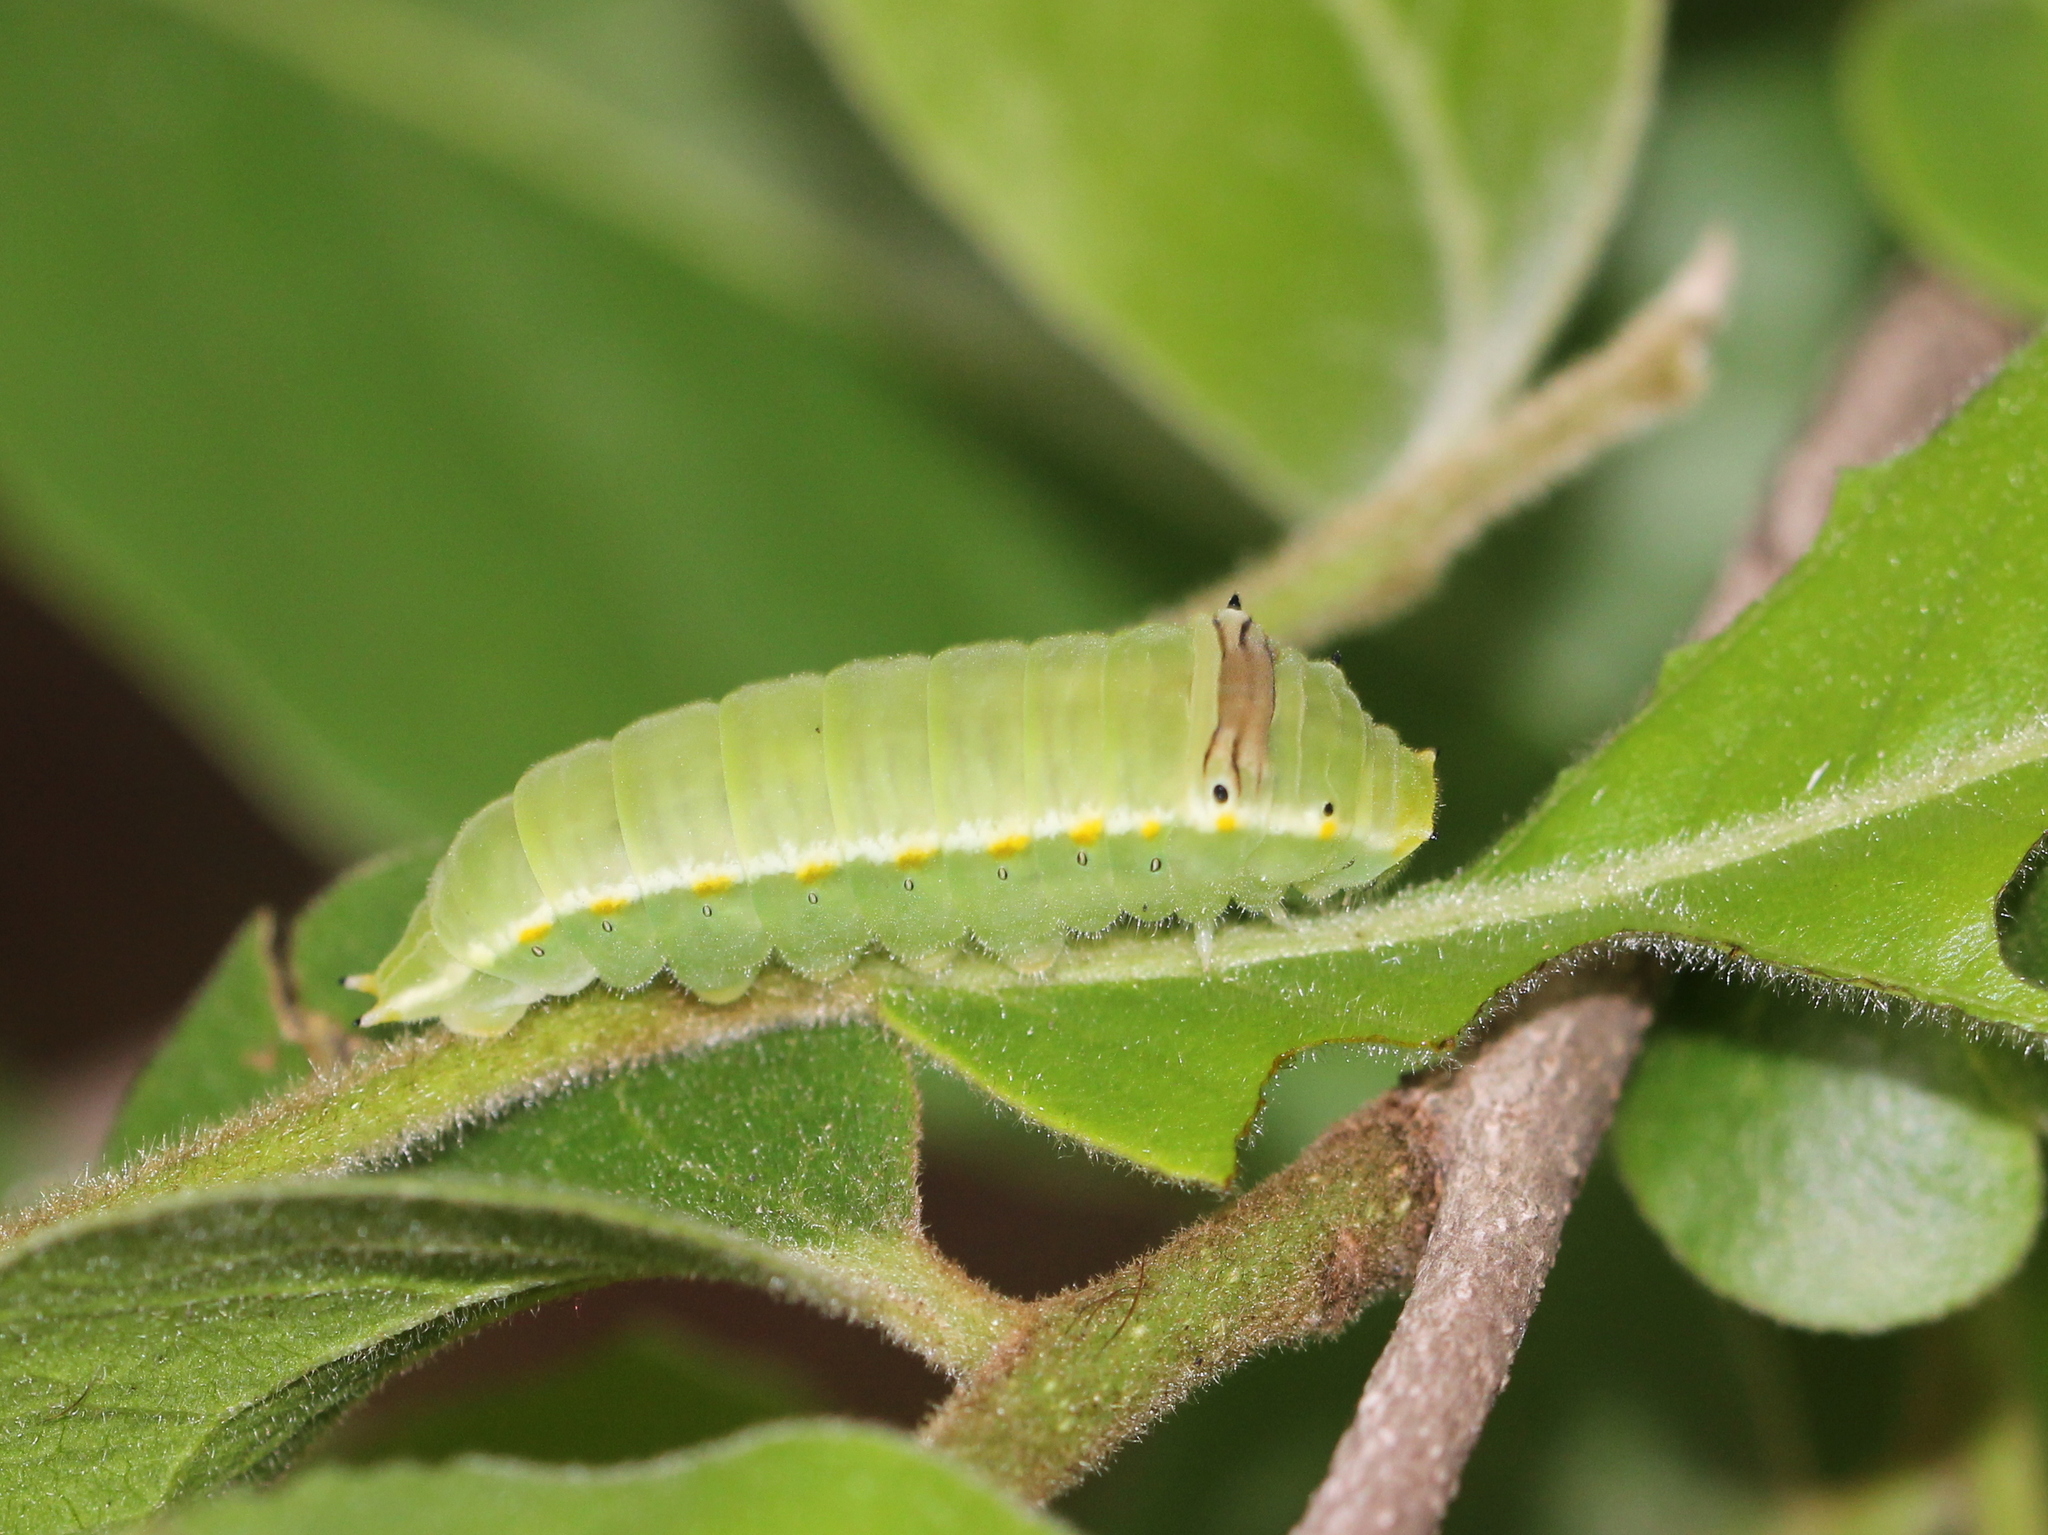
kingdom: Animalia
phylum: Arthropoda
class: Insecta
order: Lepidoptera
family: Papilionidae
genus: Graphium
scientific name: Graphium nomius
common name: Spot swordtail
